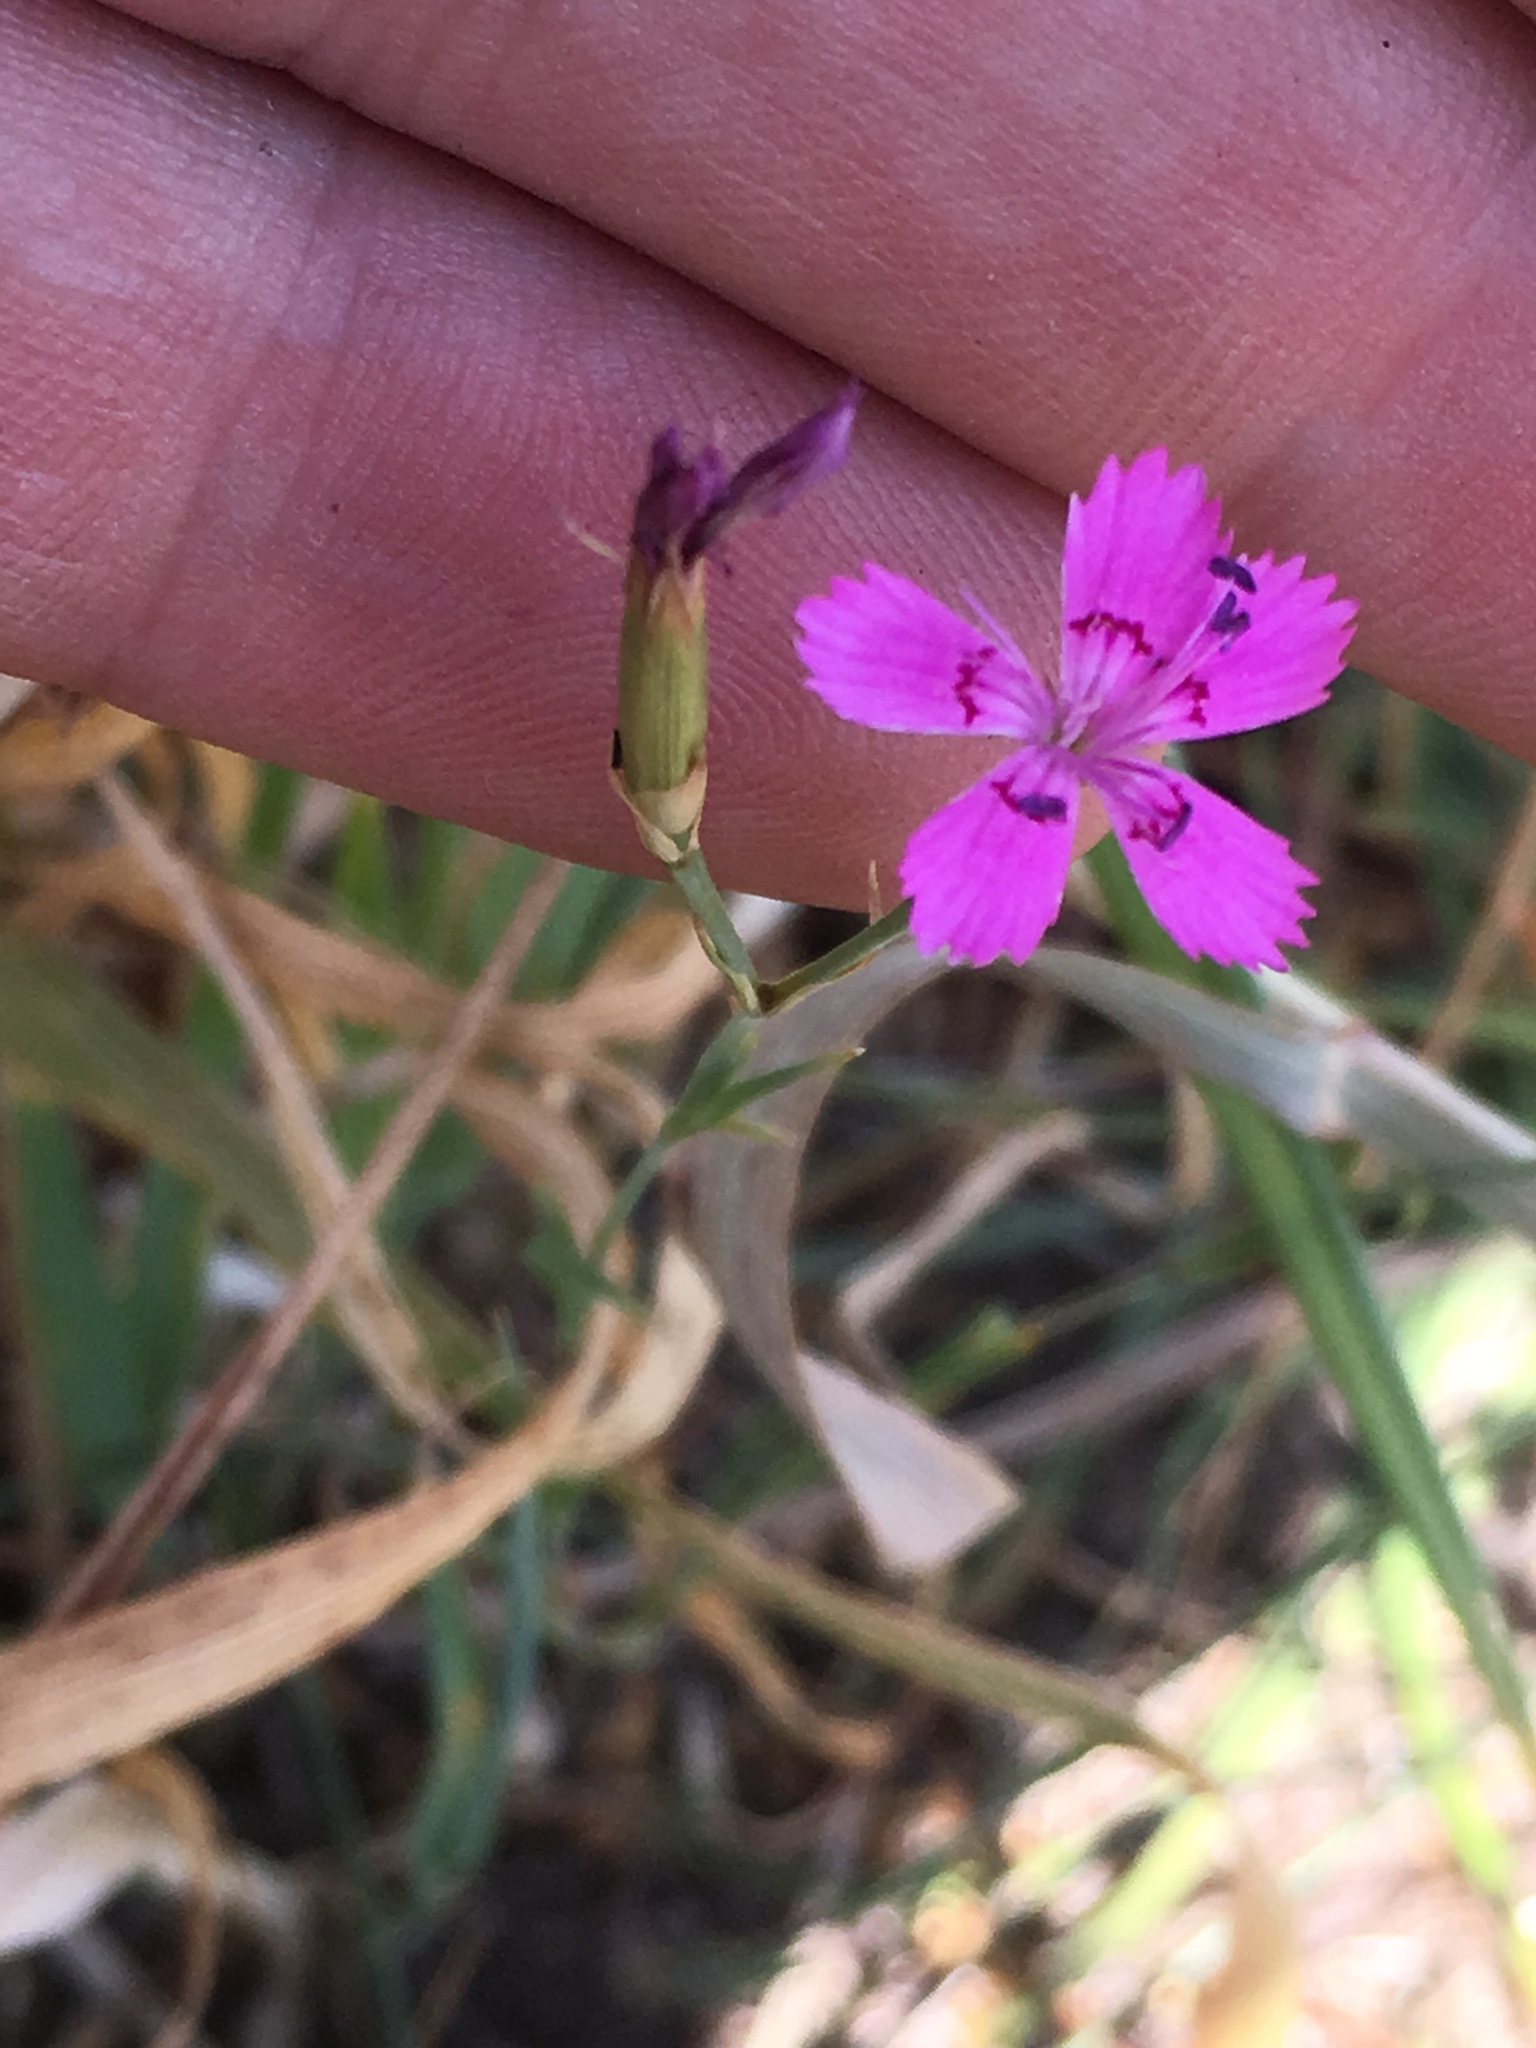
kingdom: Plantae
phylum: Tracheophyta
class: Magnoliopsida
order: Caryophyllales
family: Caryophyllaceae
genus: Dianthus
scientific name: Dianthus deltoides
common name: Maiden pink
